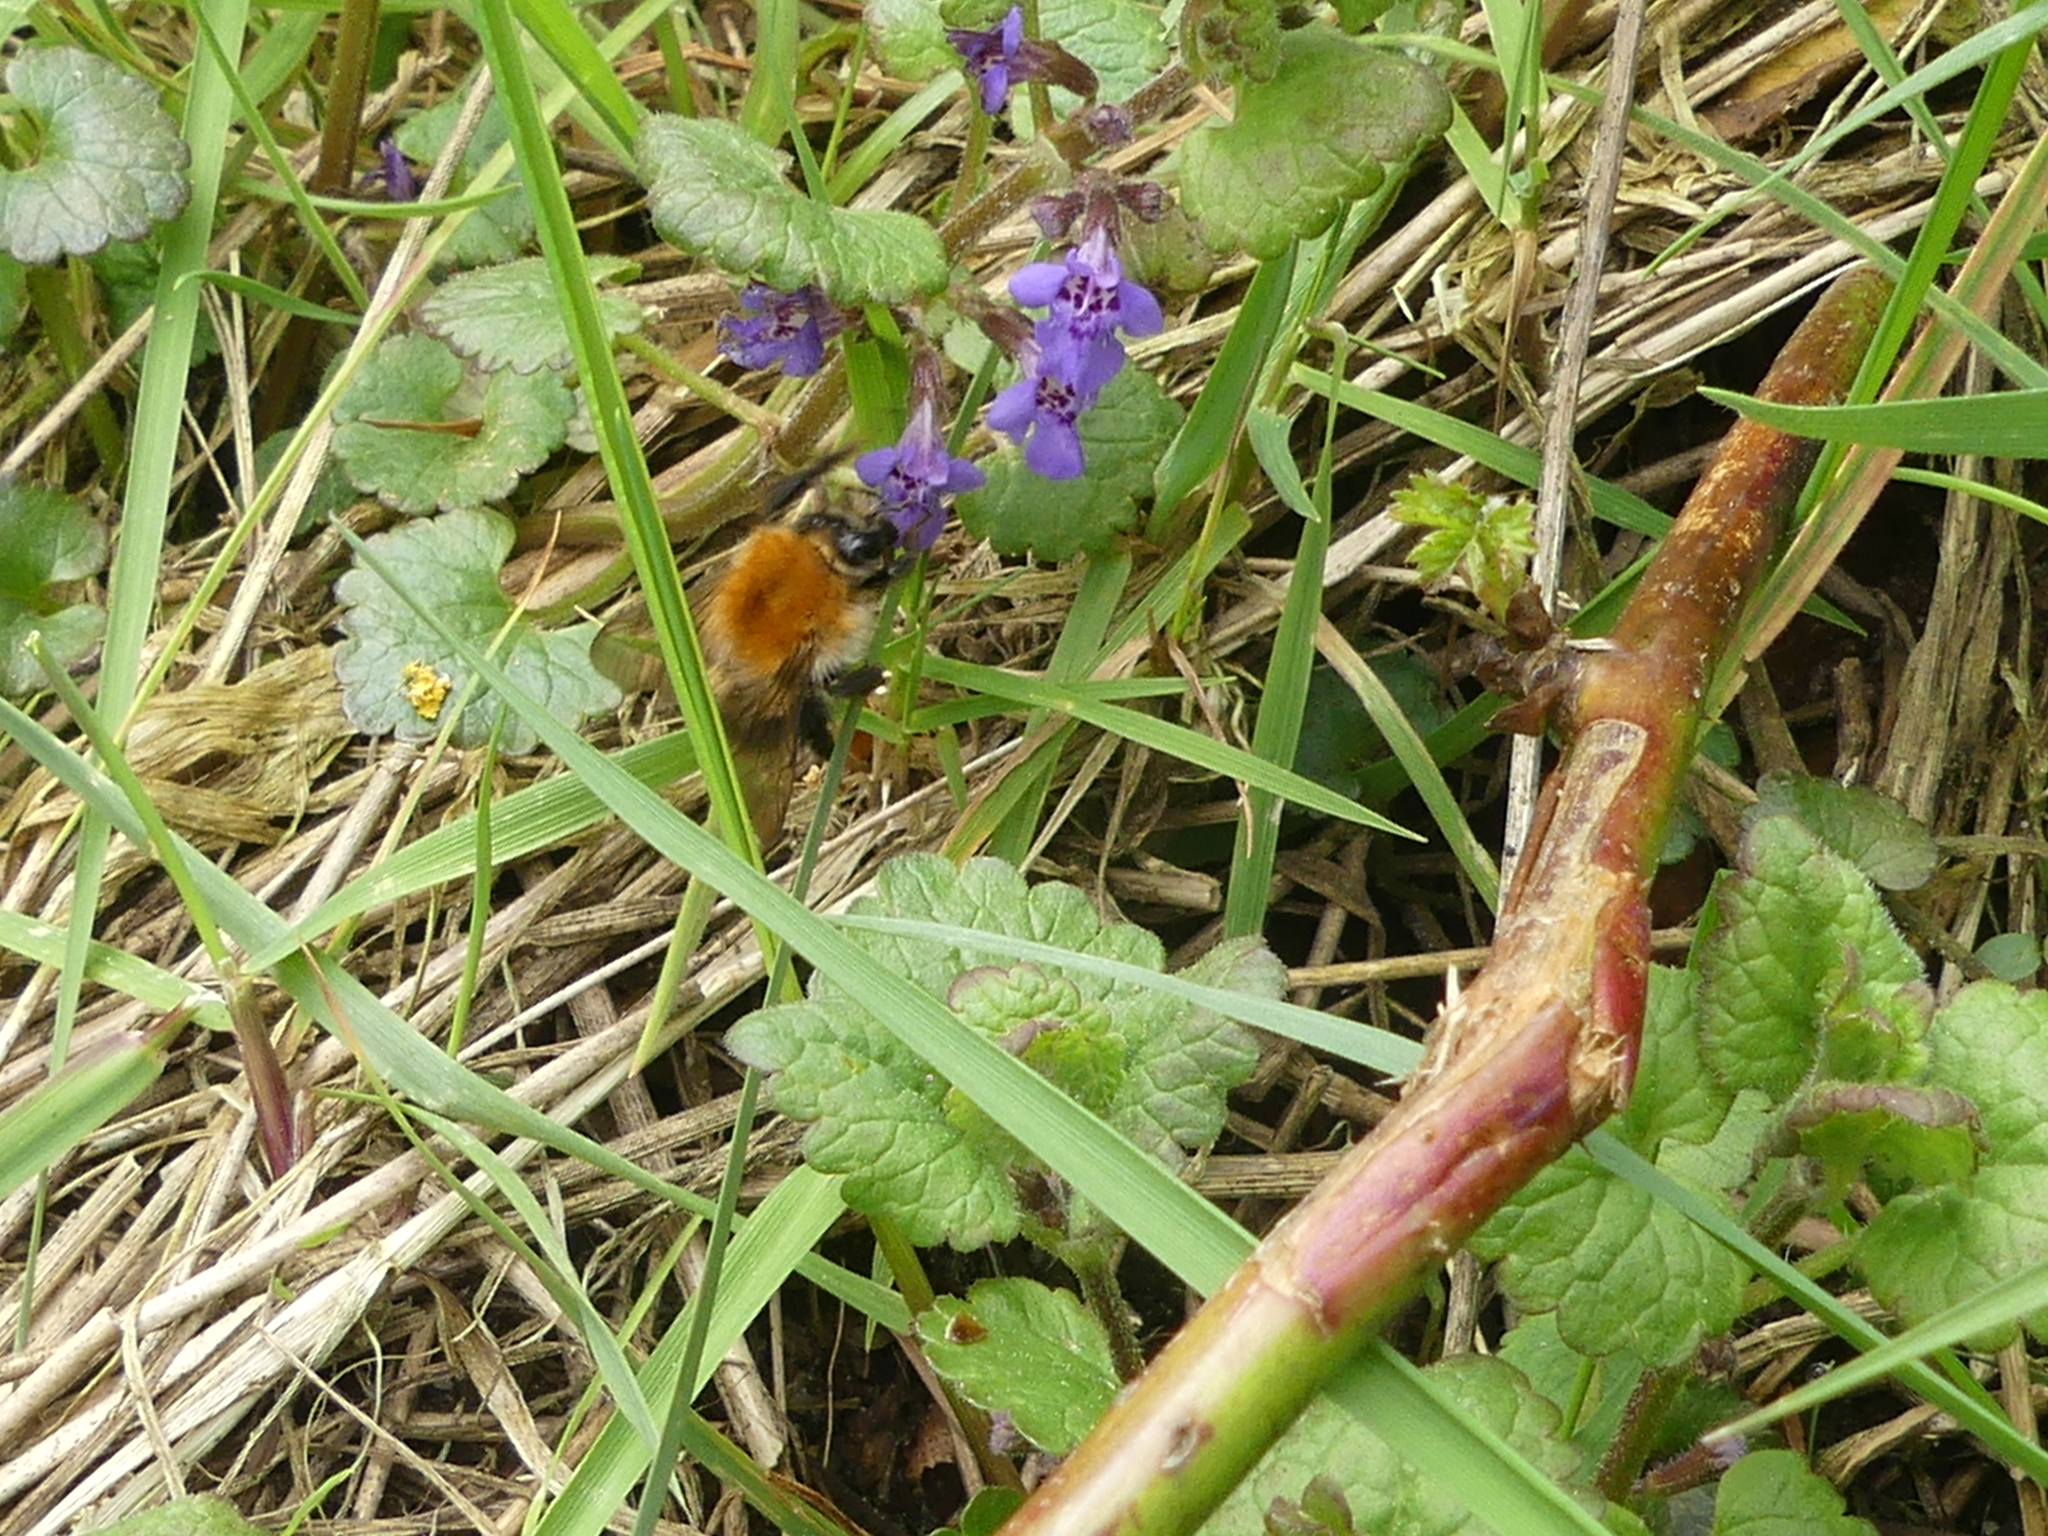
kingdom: Animalia
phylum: Arthropoda
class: Insecta
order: Hymenoptera
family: Apidae
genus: Bombus
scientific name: Bombus pascuorum
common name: Common carder bee
